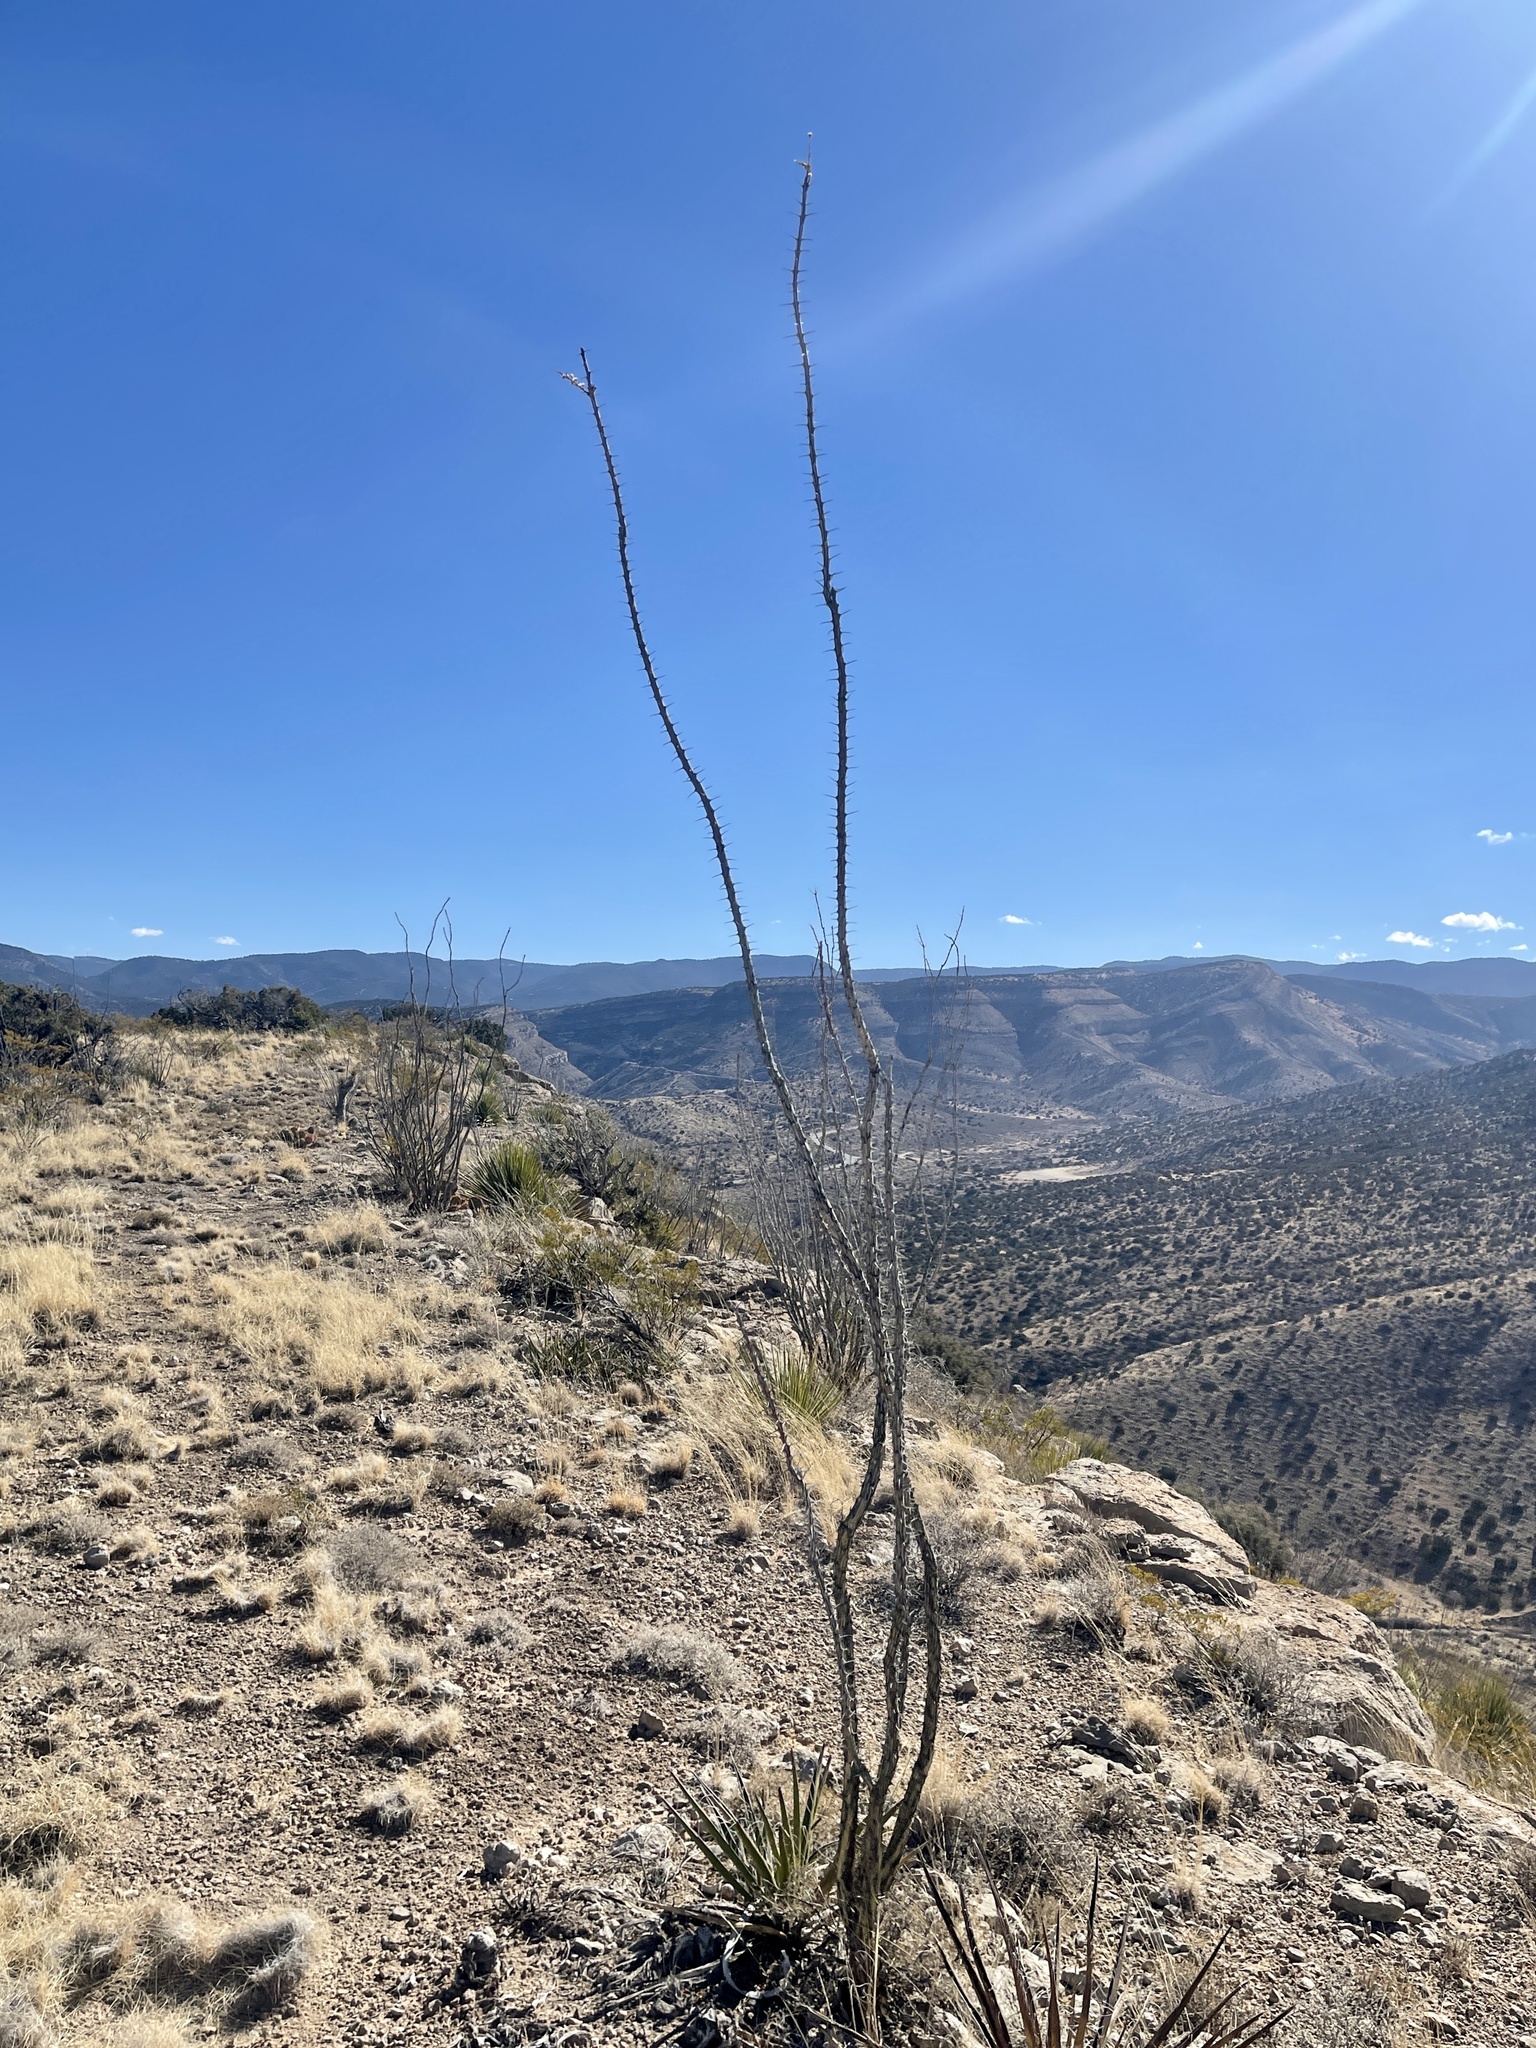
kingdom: Plantae
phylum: Tracheophyta
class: Magnoliopsida
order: Ericales
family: Fouquieriaceae
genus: Fouquieria
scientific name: Fouquieria splendens
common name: Vine-cactus
